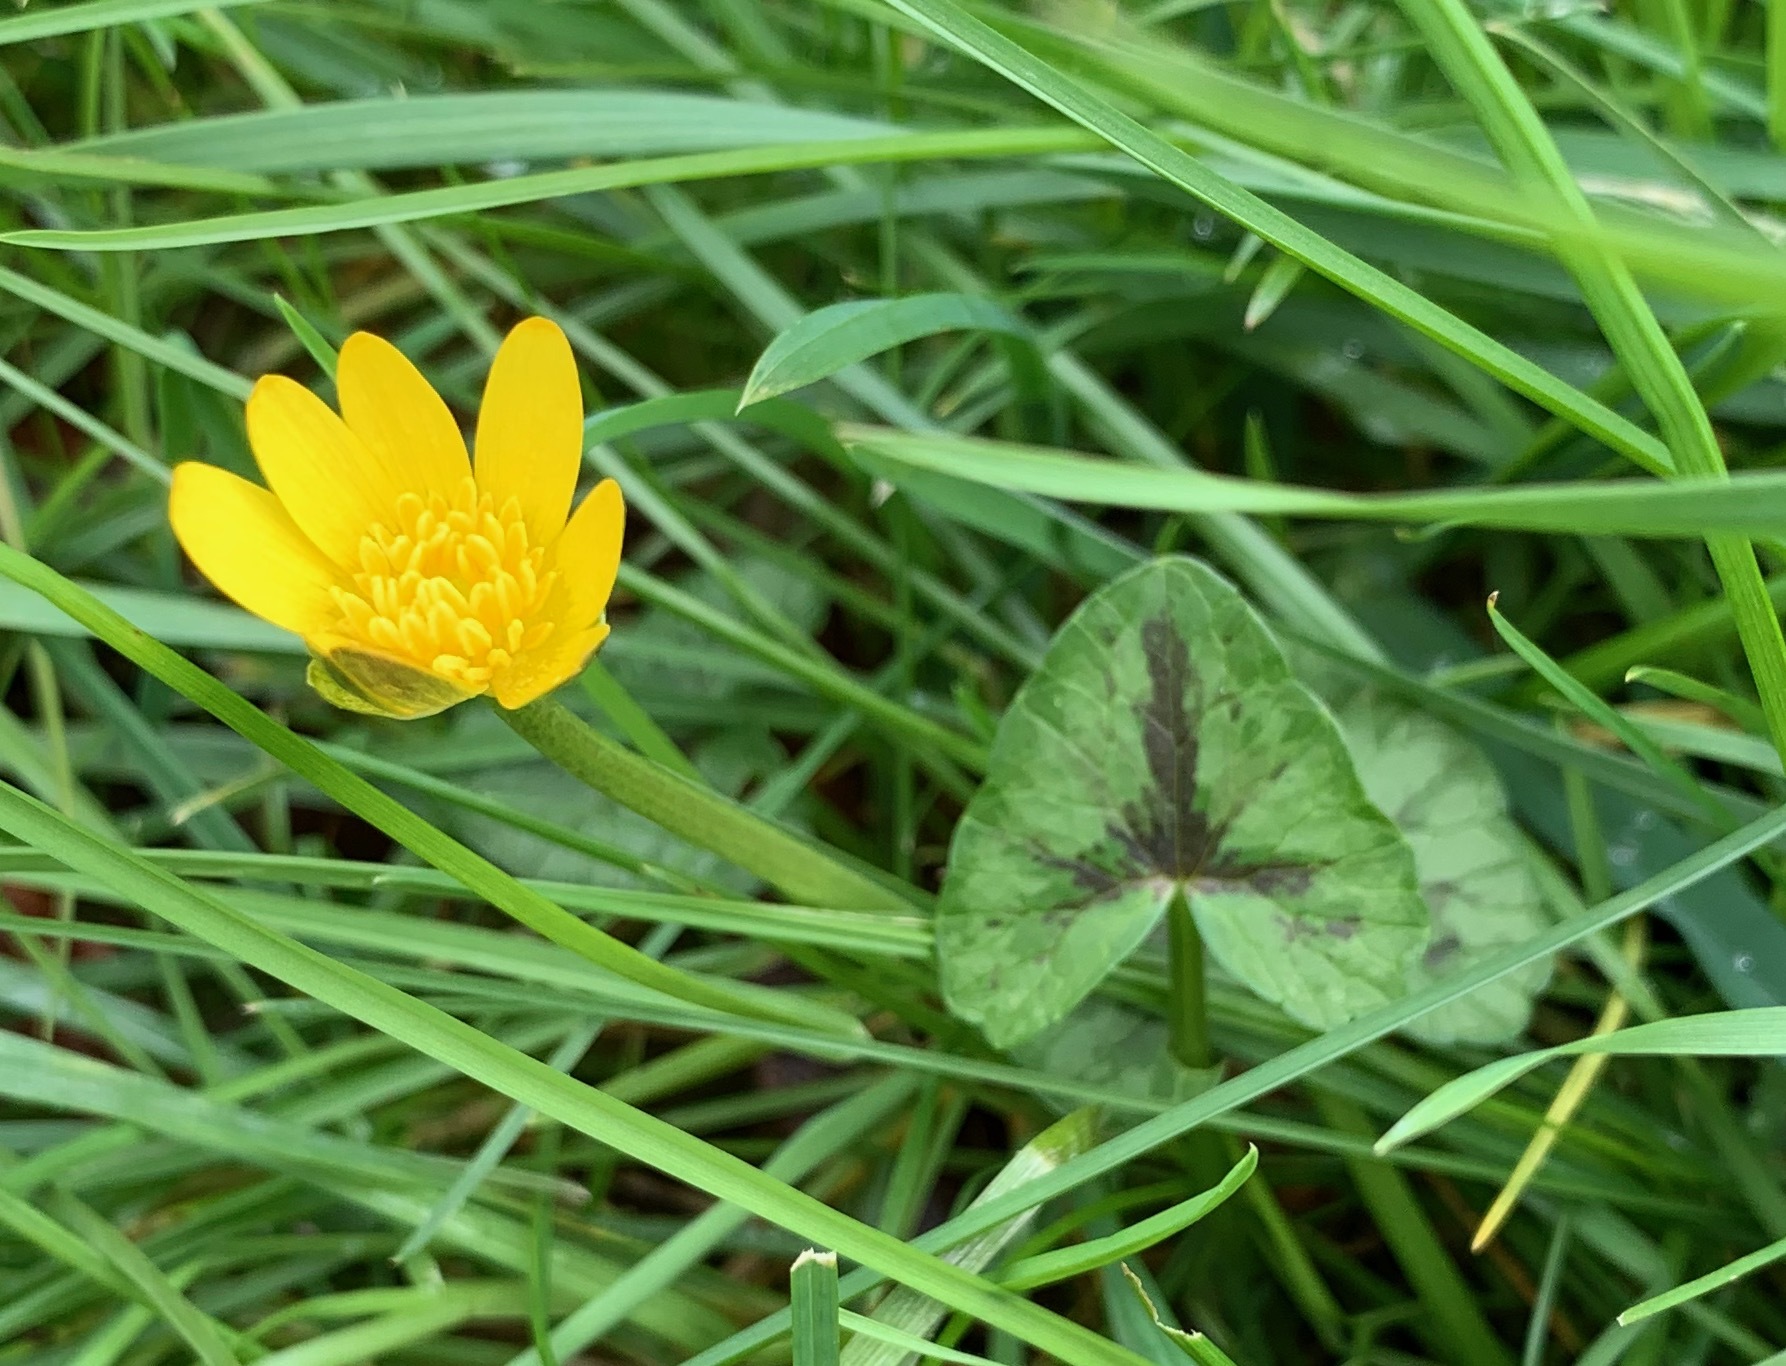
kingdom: Plantae
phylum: Tracheophyta
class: Magnoliopsida
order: Ranunculales
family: Ranunculaceae
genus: Ficaria
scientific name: Ficaria verna
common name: Lesser celandine
